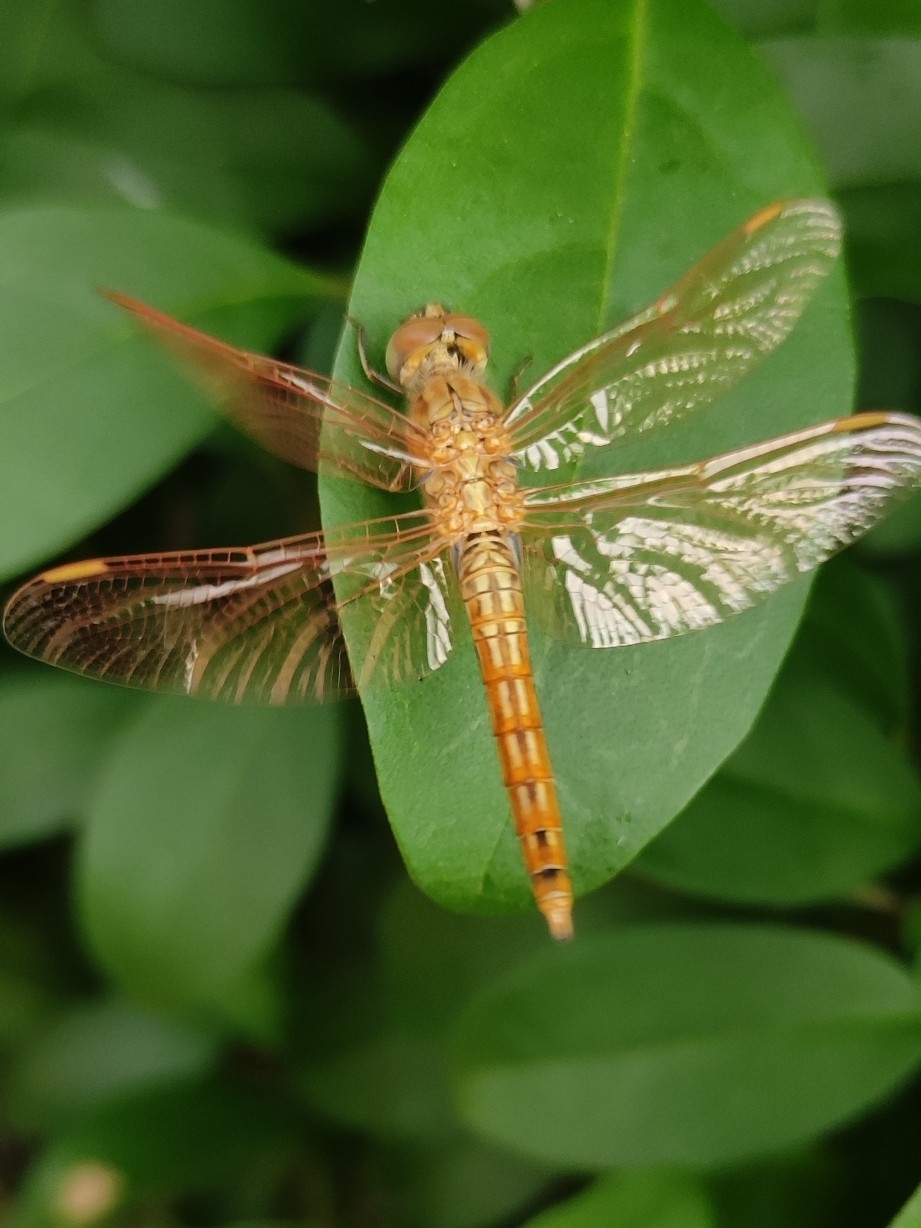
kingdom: Animalia
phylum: Arthropoda
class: Insecta
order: Odonata
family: Libellulidae
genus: Brachythemis
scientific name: Brachythemis contaminata
